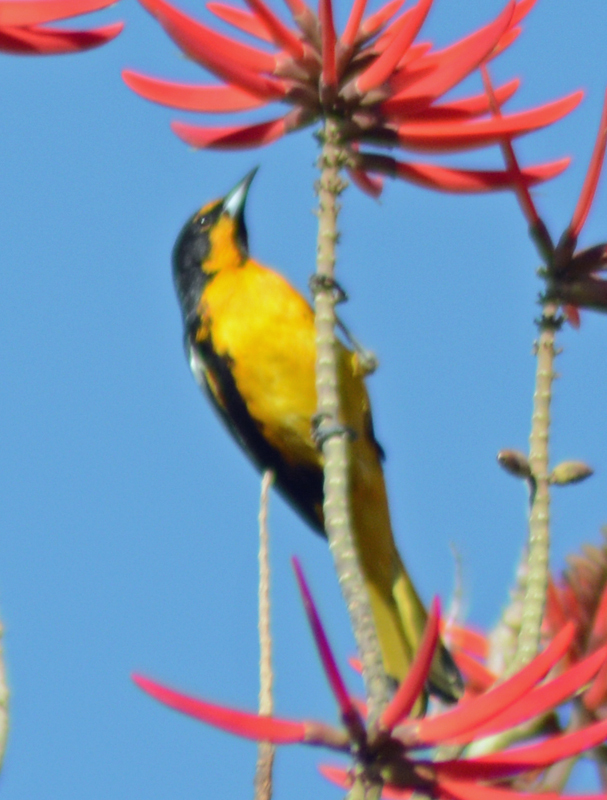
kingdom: Animalia
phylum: Chordata
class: Aves
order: Passeriformes
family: Icteridae
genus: Icterus
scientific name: Icterus abeillei
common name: Black-backed oriole
